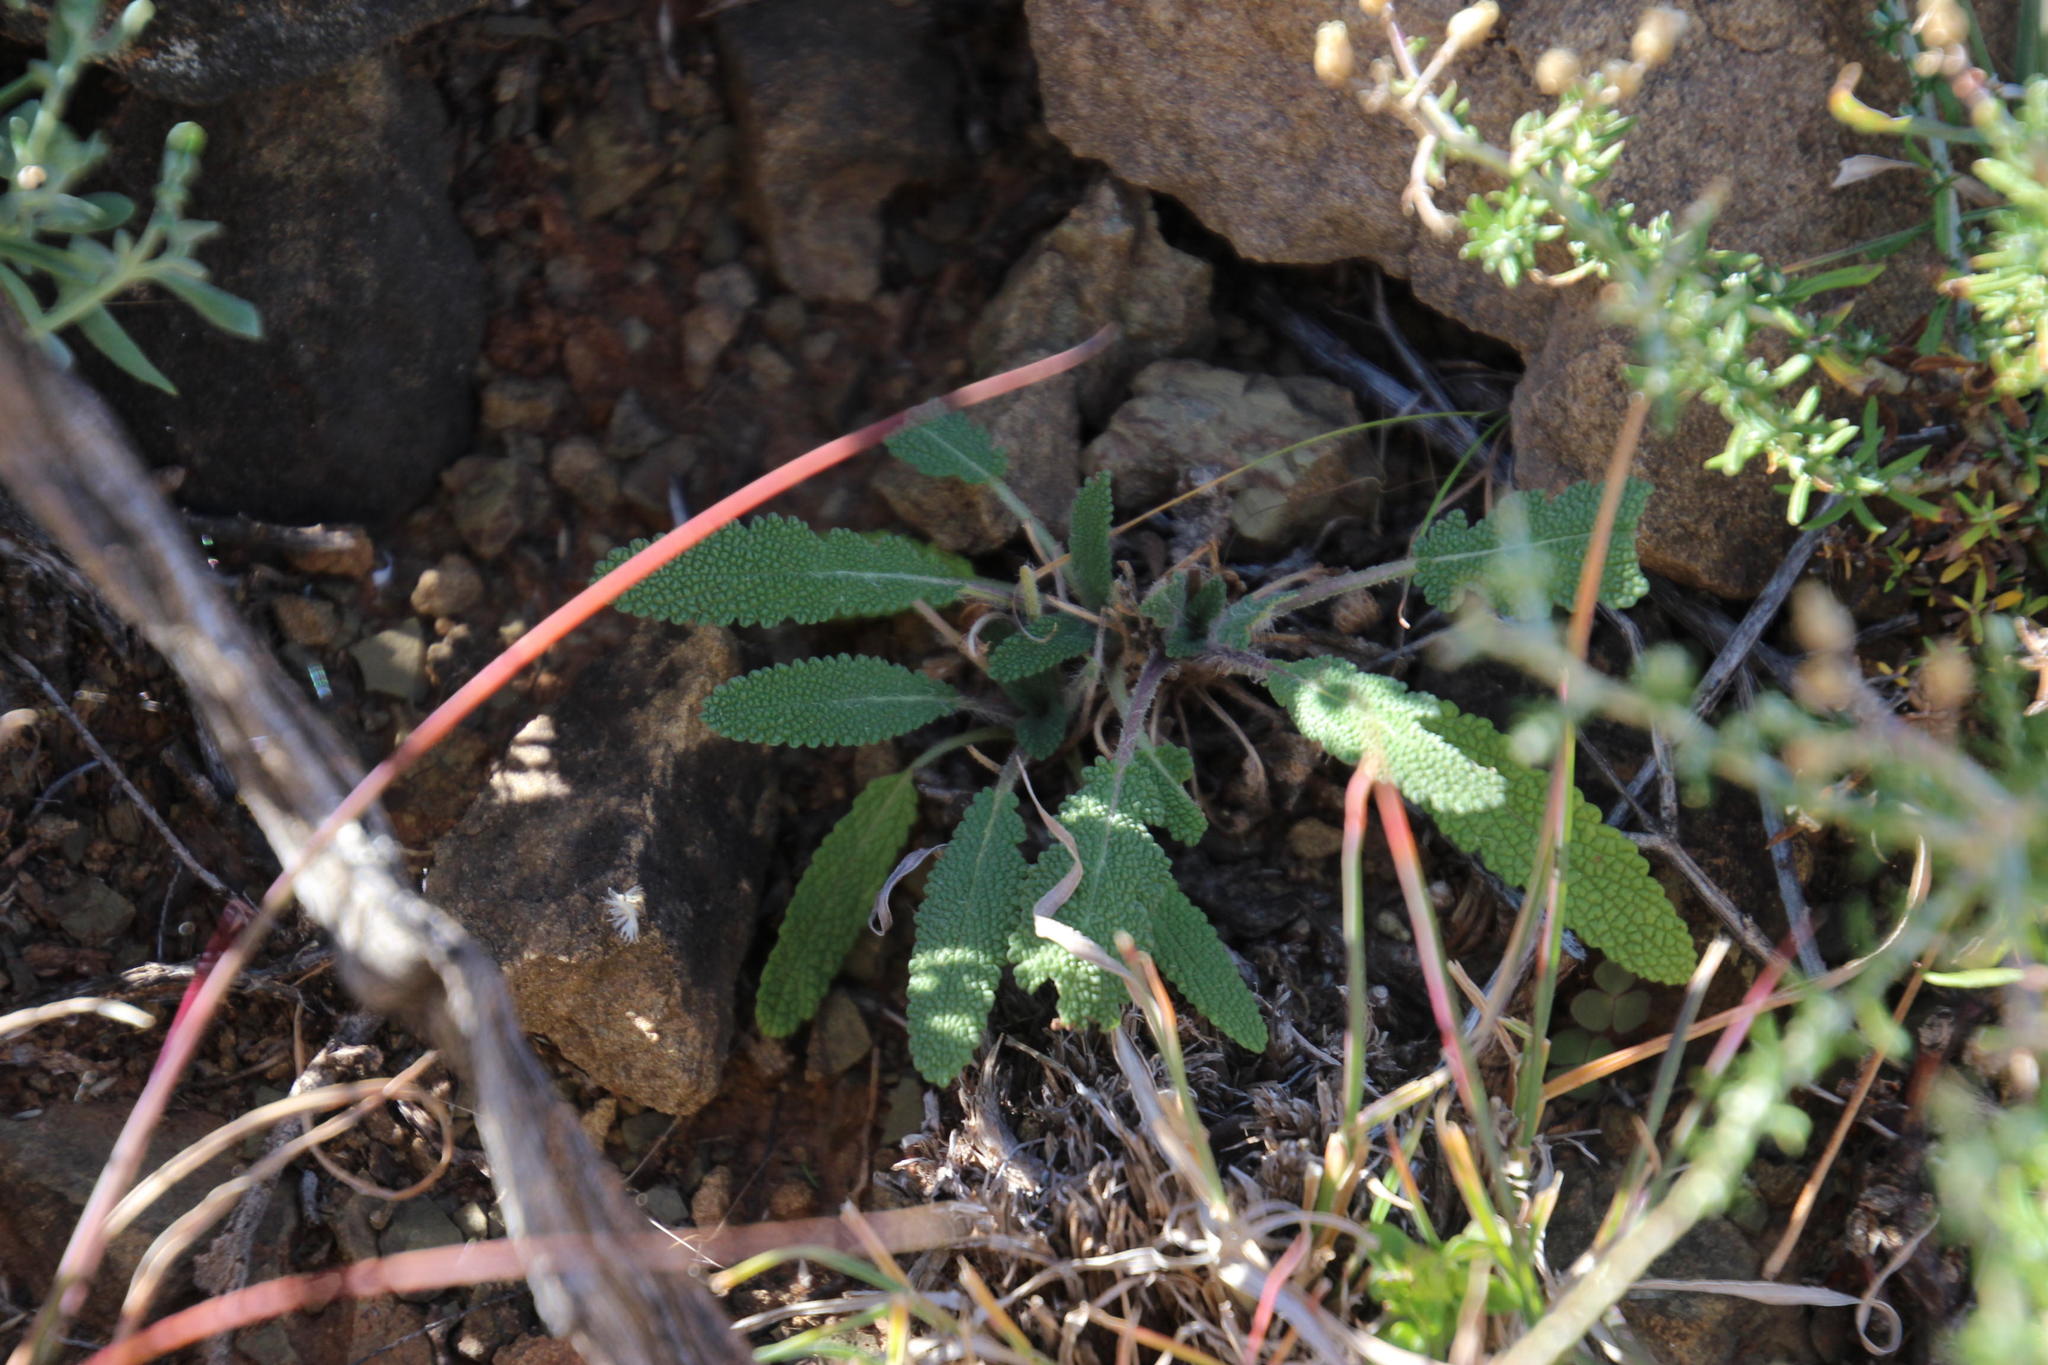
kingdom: Plantae
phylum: Tracheophyta
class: Magnoliopsida
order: Lamiales
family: Lamiaceae
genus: Salvia
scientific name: Salvia disermas
